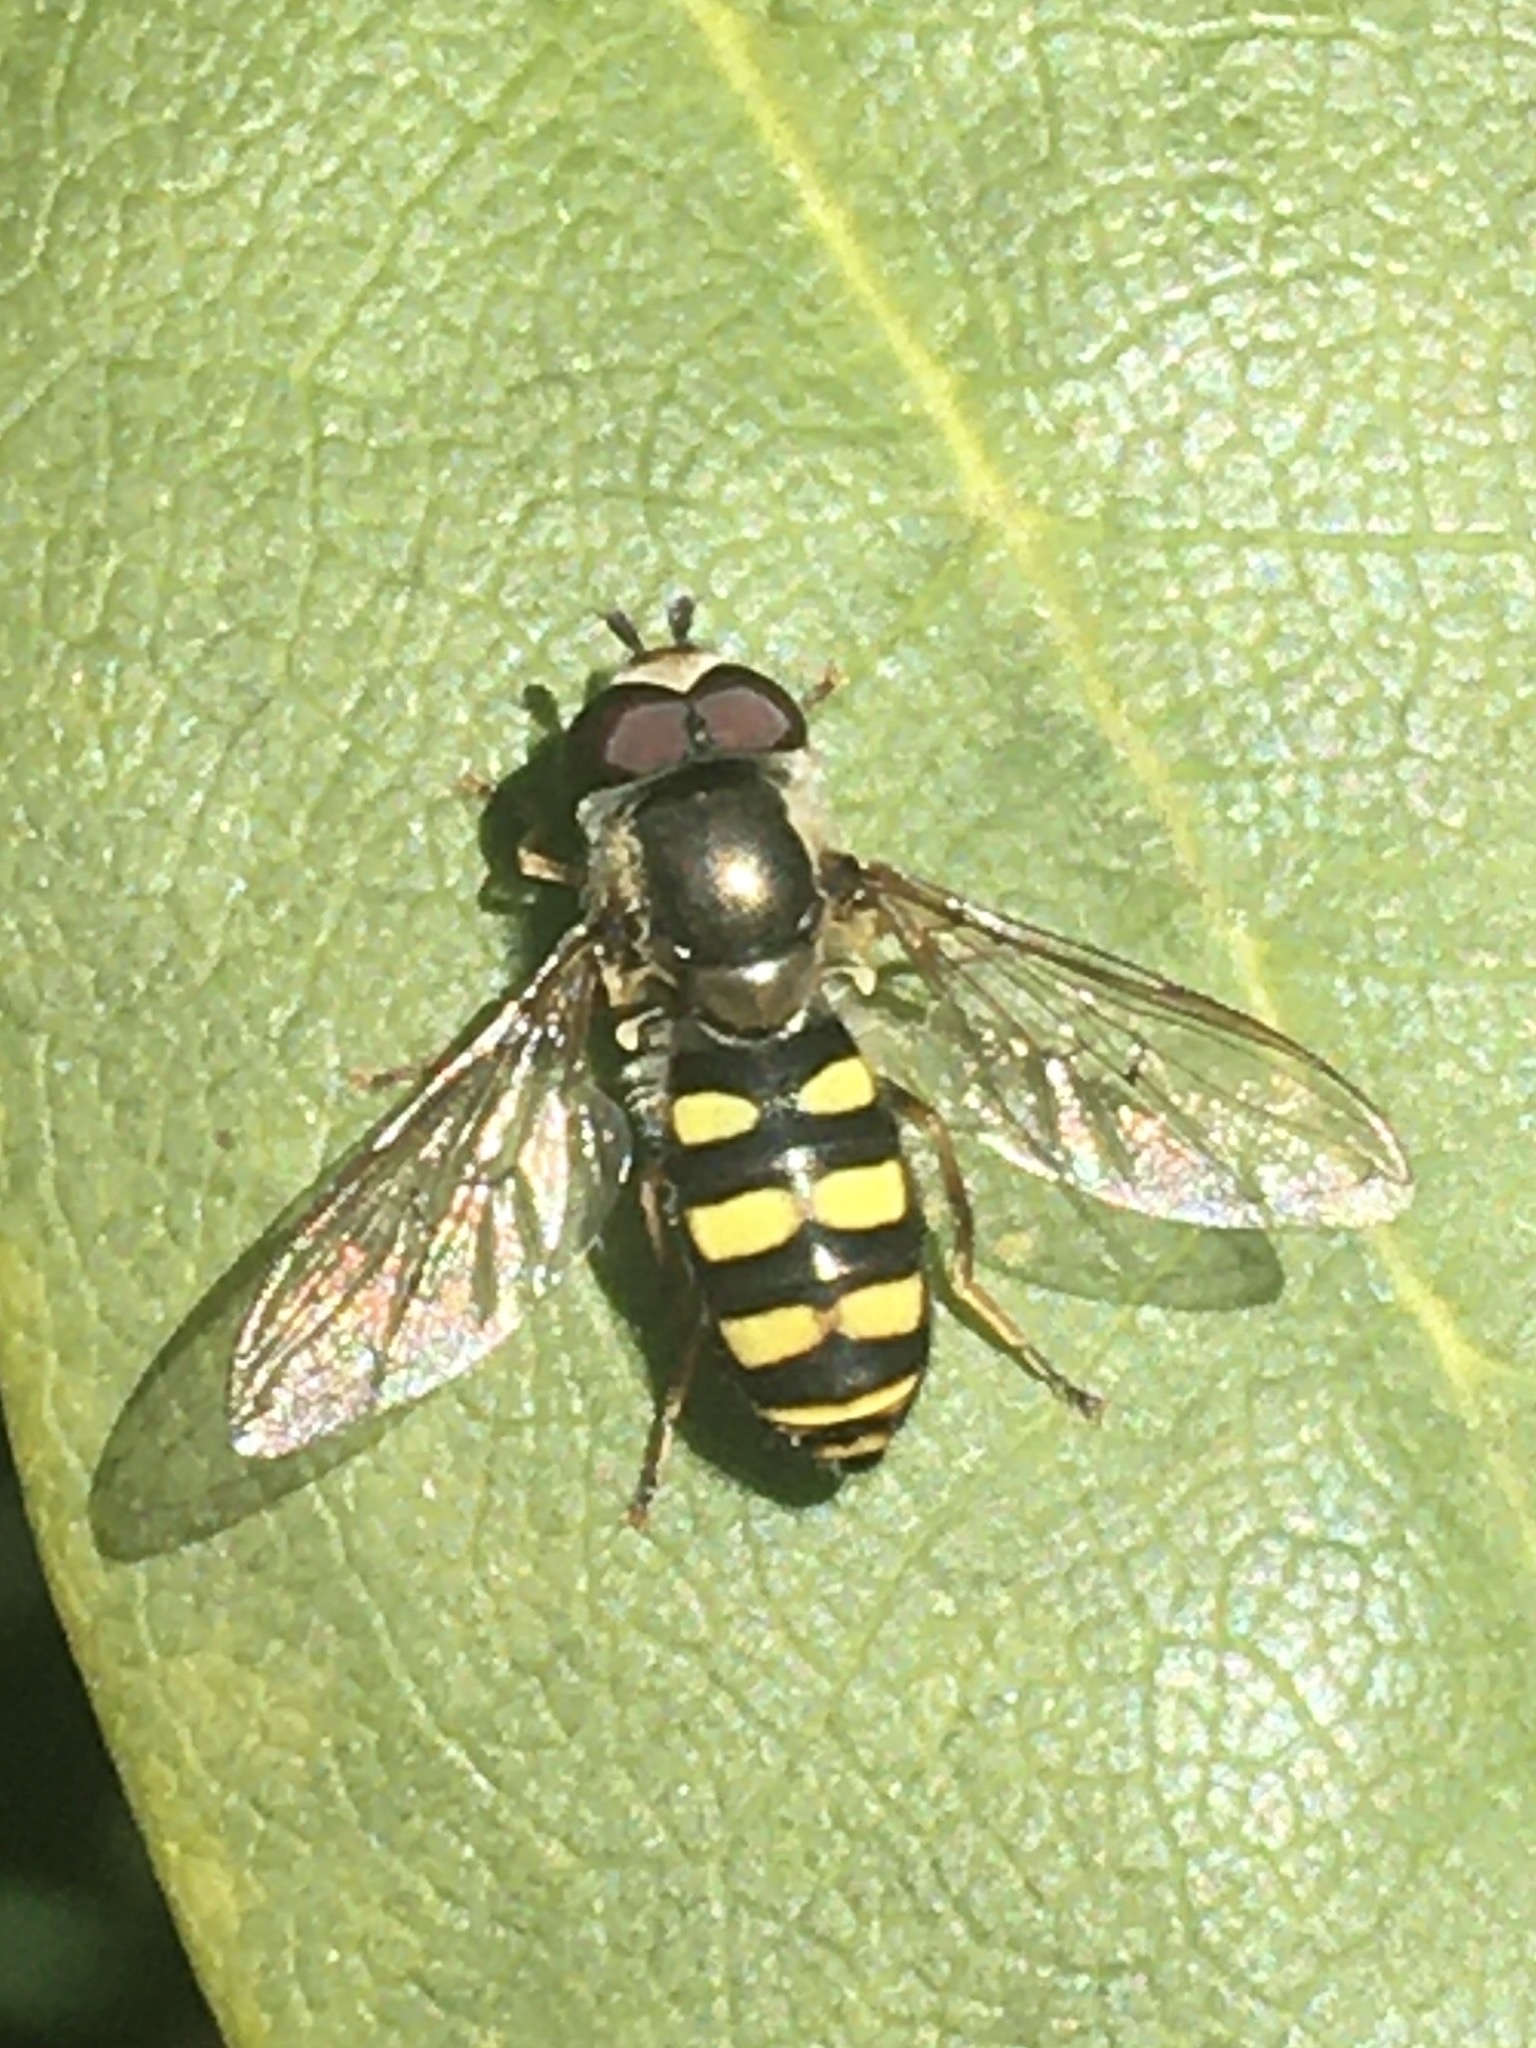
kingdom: Animalia
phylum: Arthropoda
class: Insecta
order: Diptera
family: Syrphidae
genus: Eupeodes
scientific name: Eupeodes
